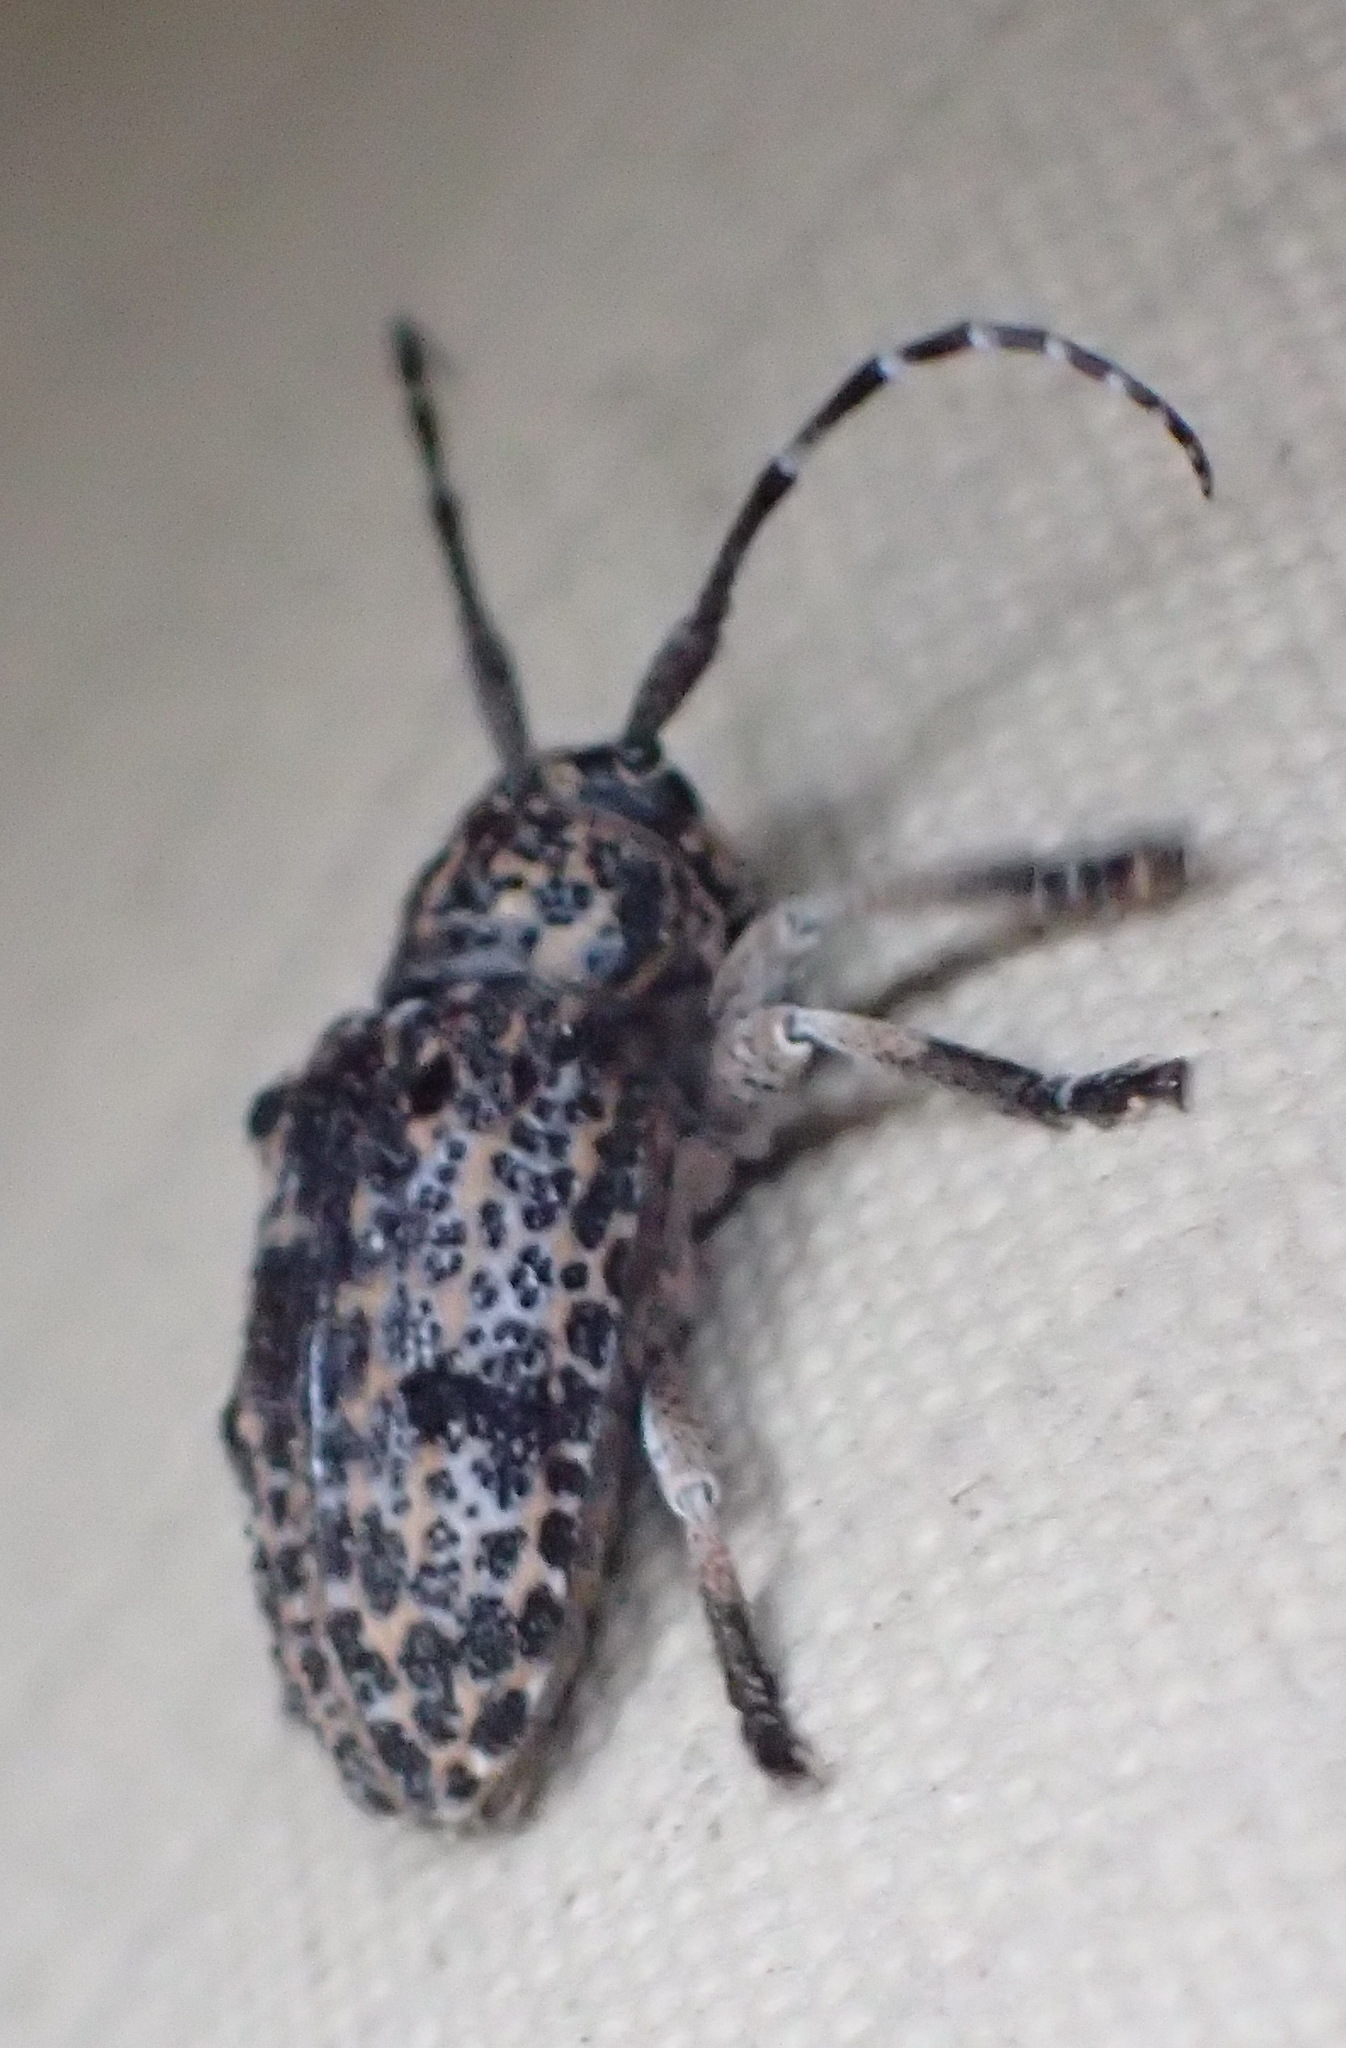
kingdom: Animalia
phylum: Arthropoda
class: Insecta
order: Coleoptera
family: Cerambycidae
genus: Dichostates
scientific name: Dichostates lignarius
